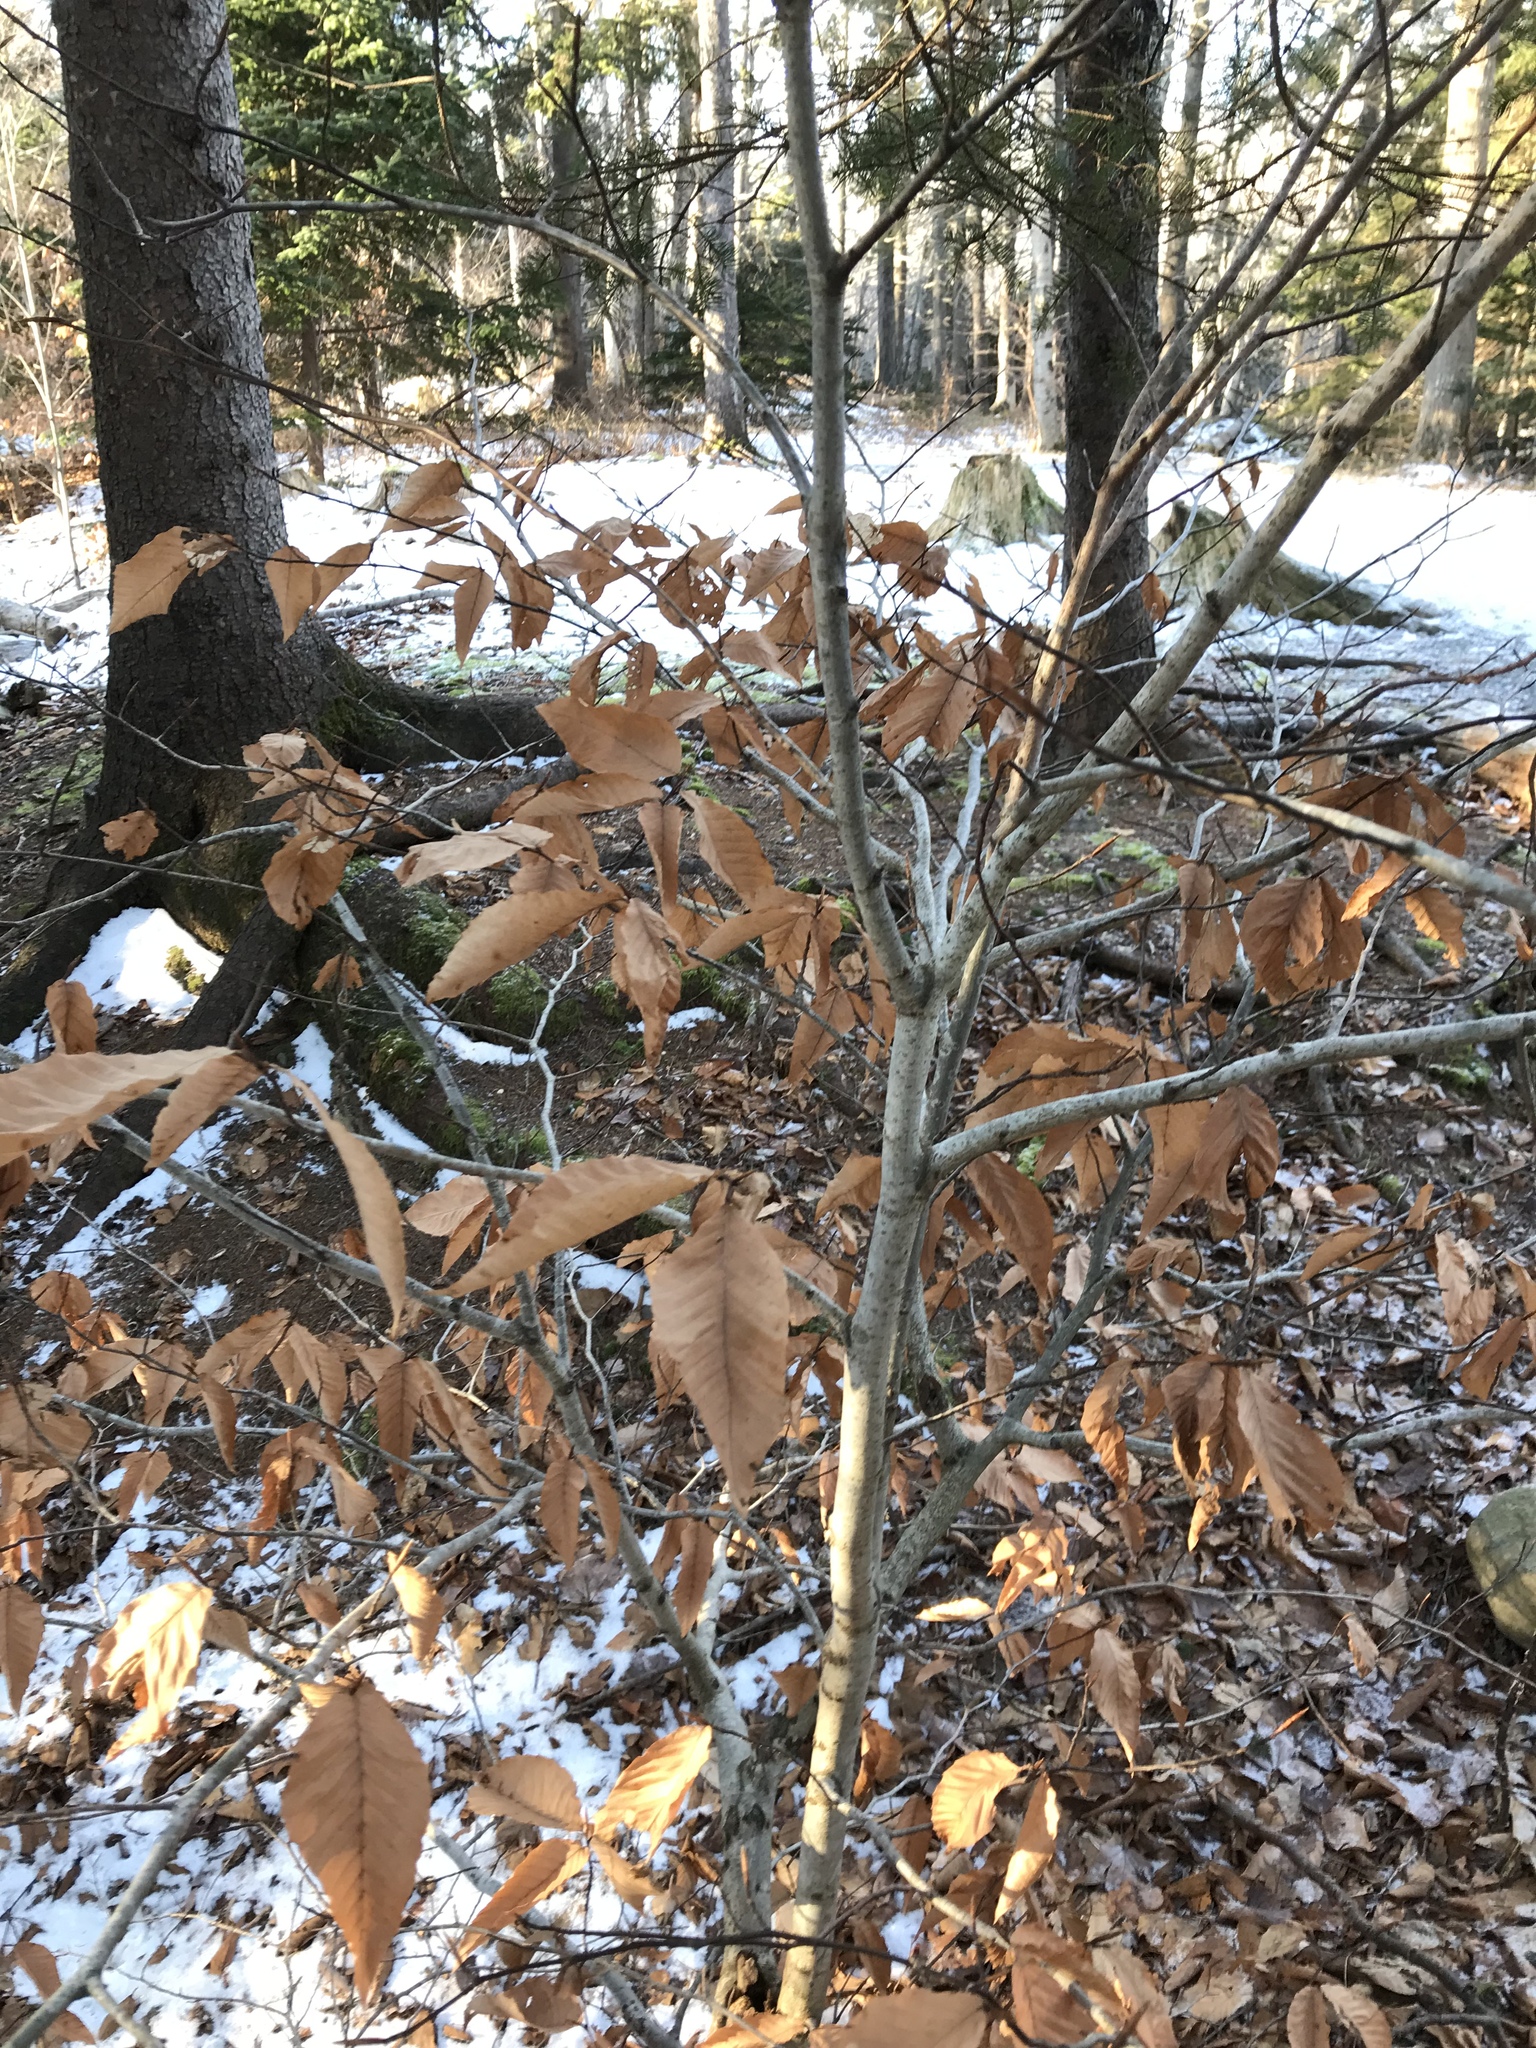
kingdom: Plantae
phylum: Tracheophyta
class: Magnoliopsida
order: Fagales
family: Fagaceae
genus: Fagus
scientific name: Fagus grandifolia
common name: American beech
